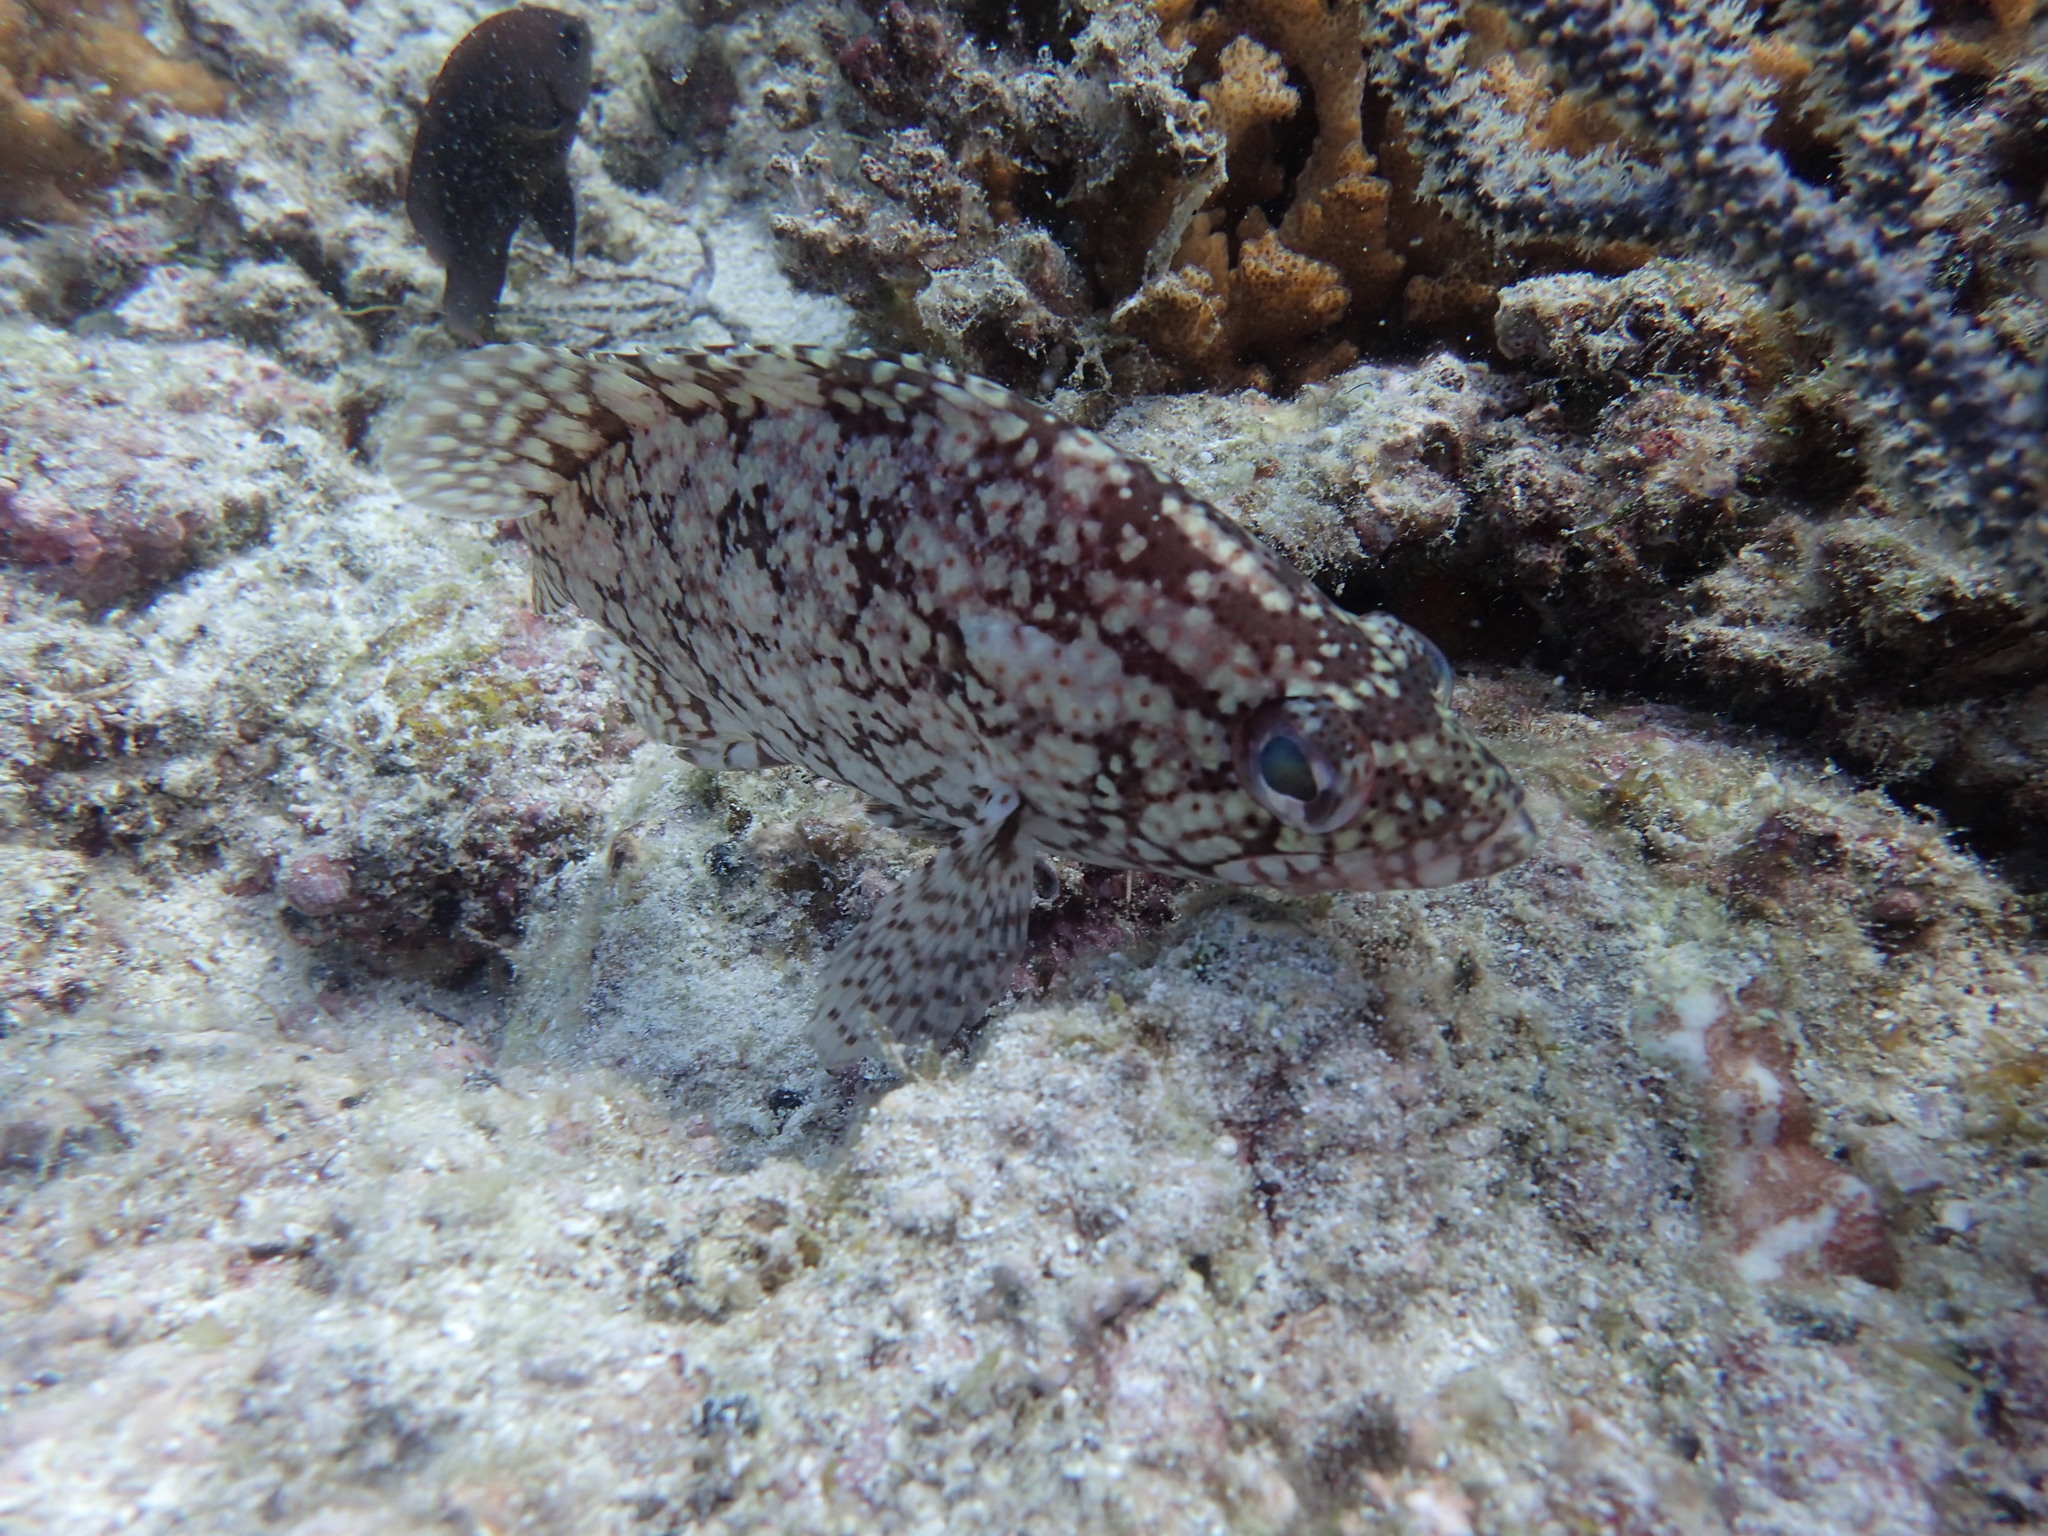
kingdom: Animalia
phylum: Chordata
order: Perciformes
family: Serranidae
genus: Alphestes
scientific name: Alphestes immaculatus
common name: Pacific mutton hamlet
